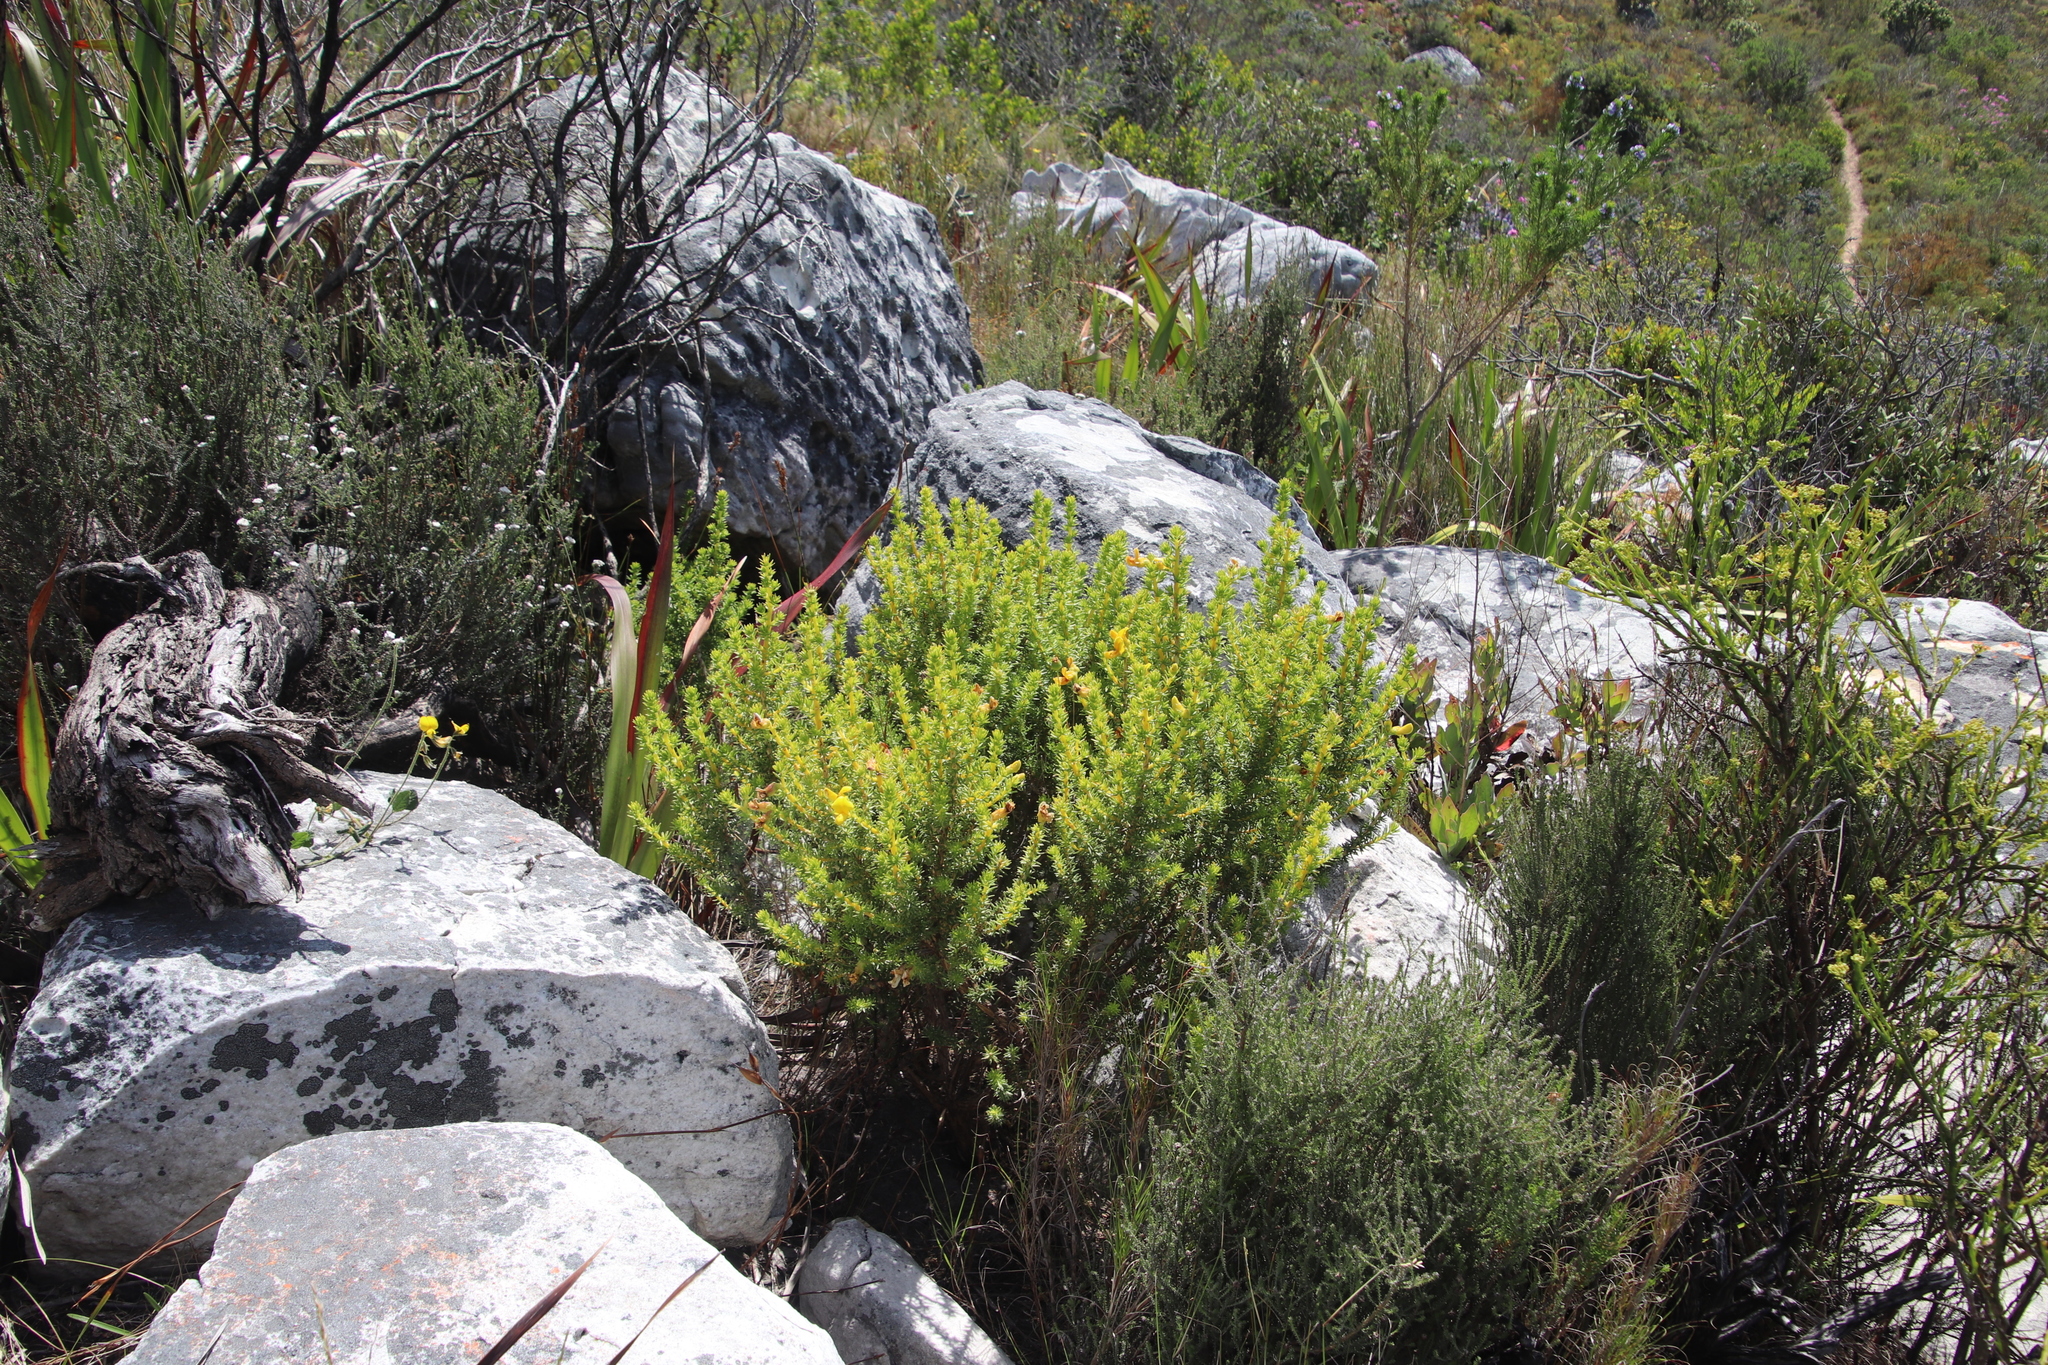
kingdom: Plantae
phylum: Tracheophyta
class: Magnoliopsida
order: Fabales
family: Fabaceae
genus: Aspalathus
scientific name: Aspalathus capensis
